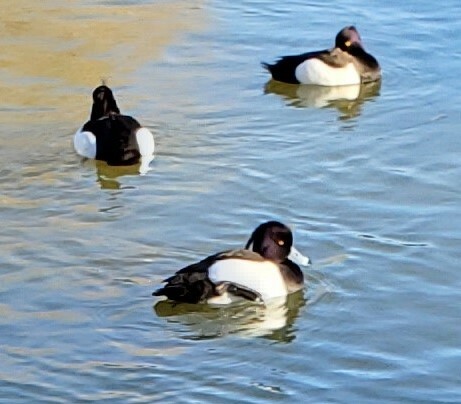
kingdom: Animalia
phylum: Chordata
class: Aves
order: Anseriformes
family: Anatidae
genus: Aythya
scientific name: Aythya fuligula
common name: Tufted duck
